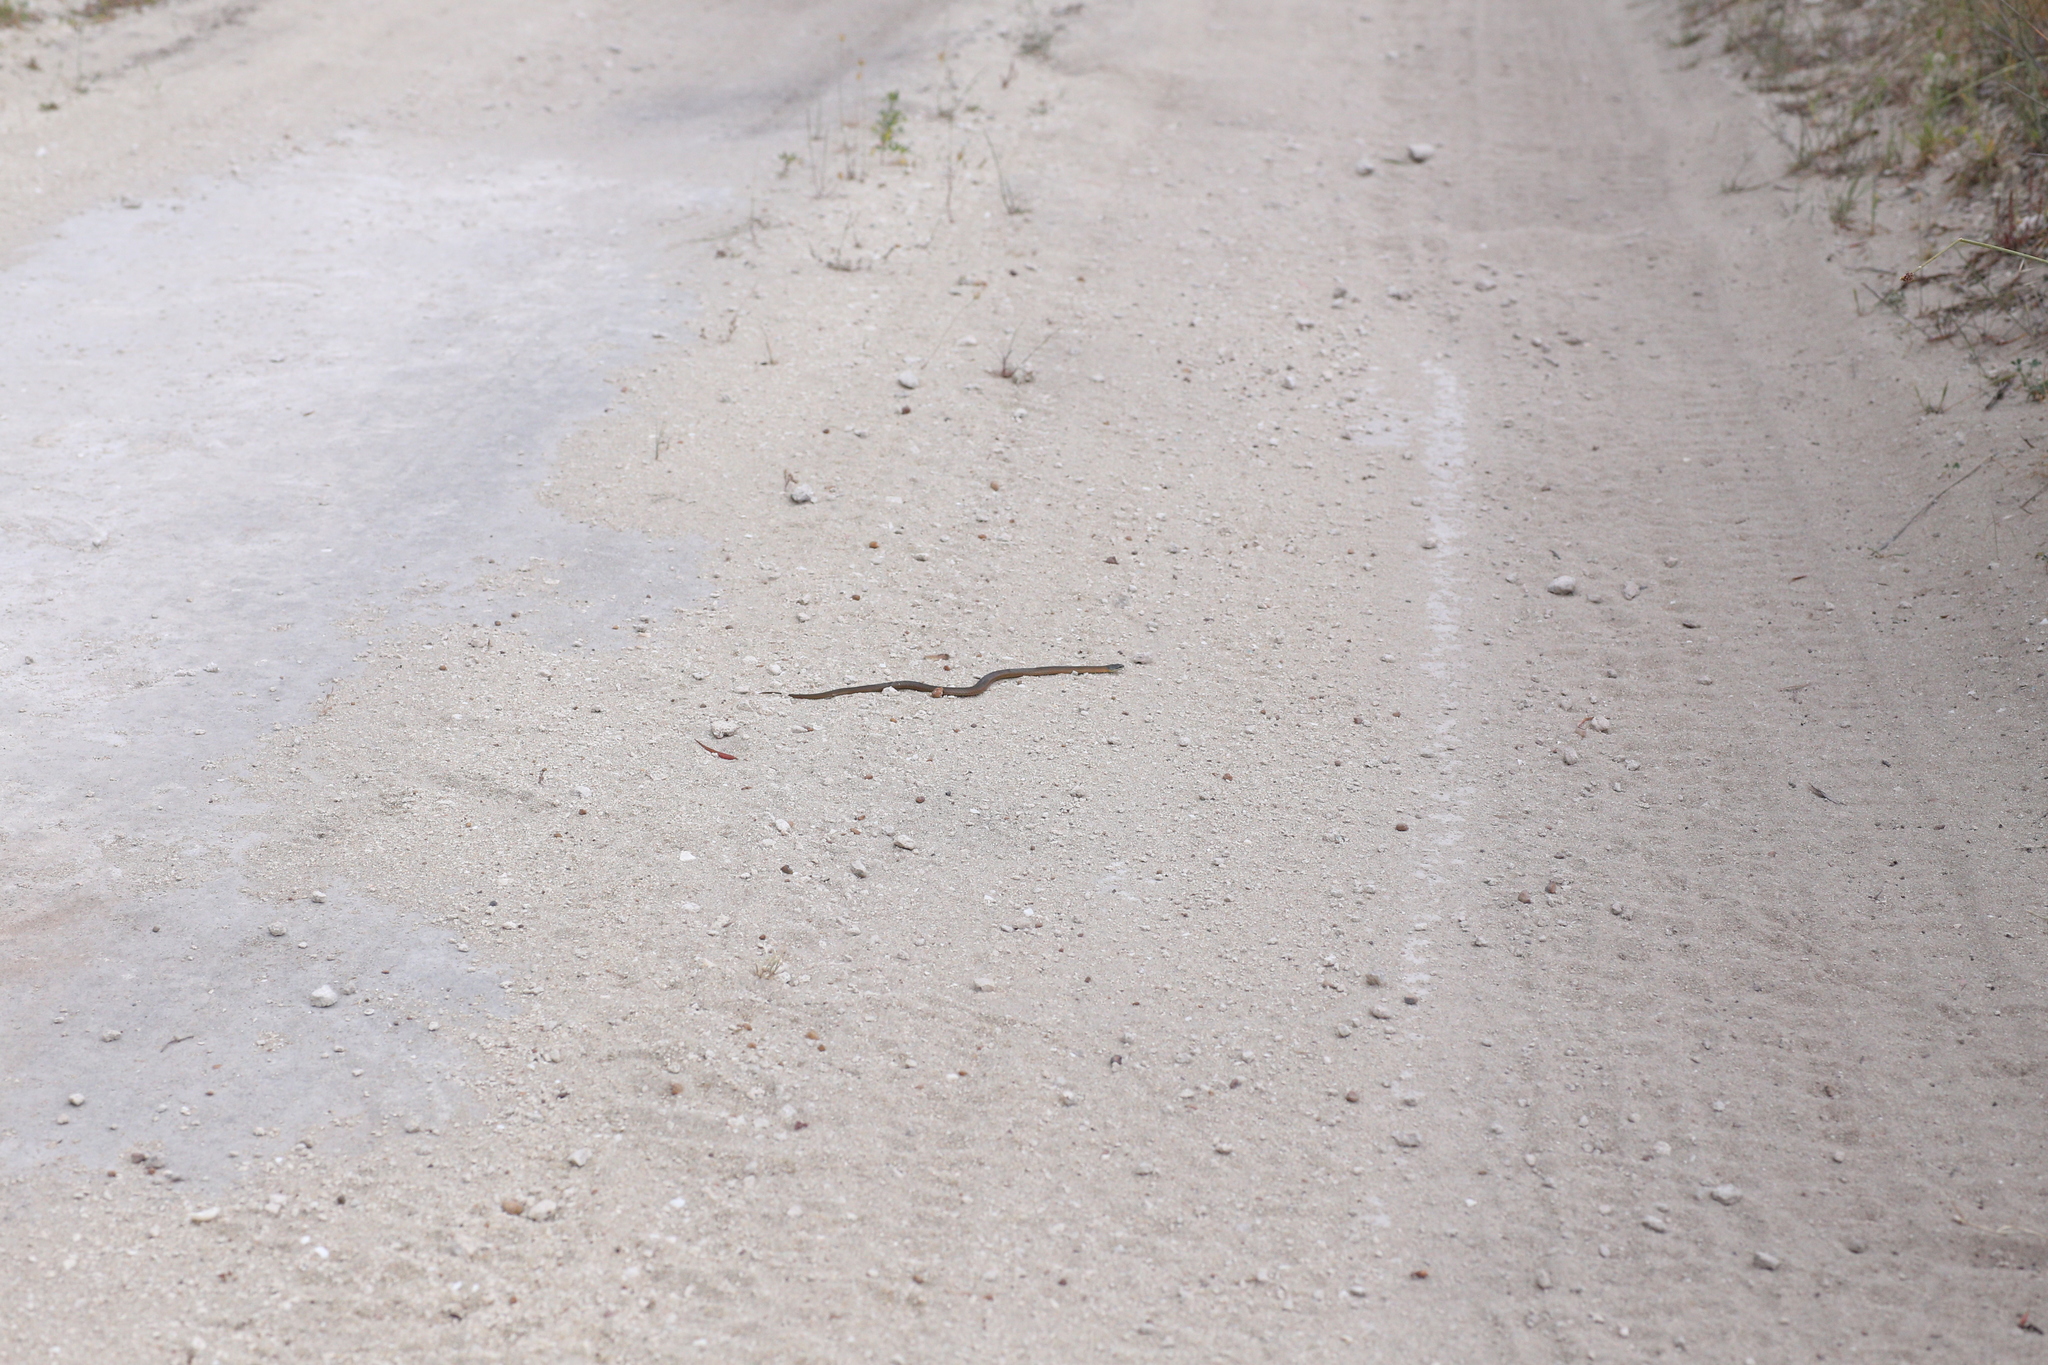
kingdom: Animalia
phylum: Chordata
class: Squamata
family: Elapidae
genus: Elapognathus
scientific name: Elapognathus coronatus
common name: Crowned snake
